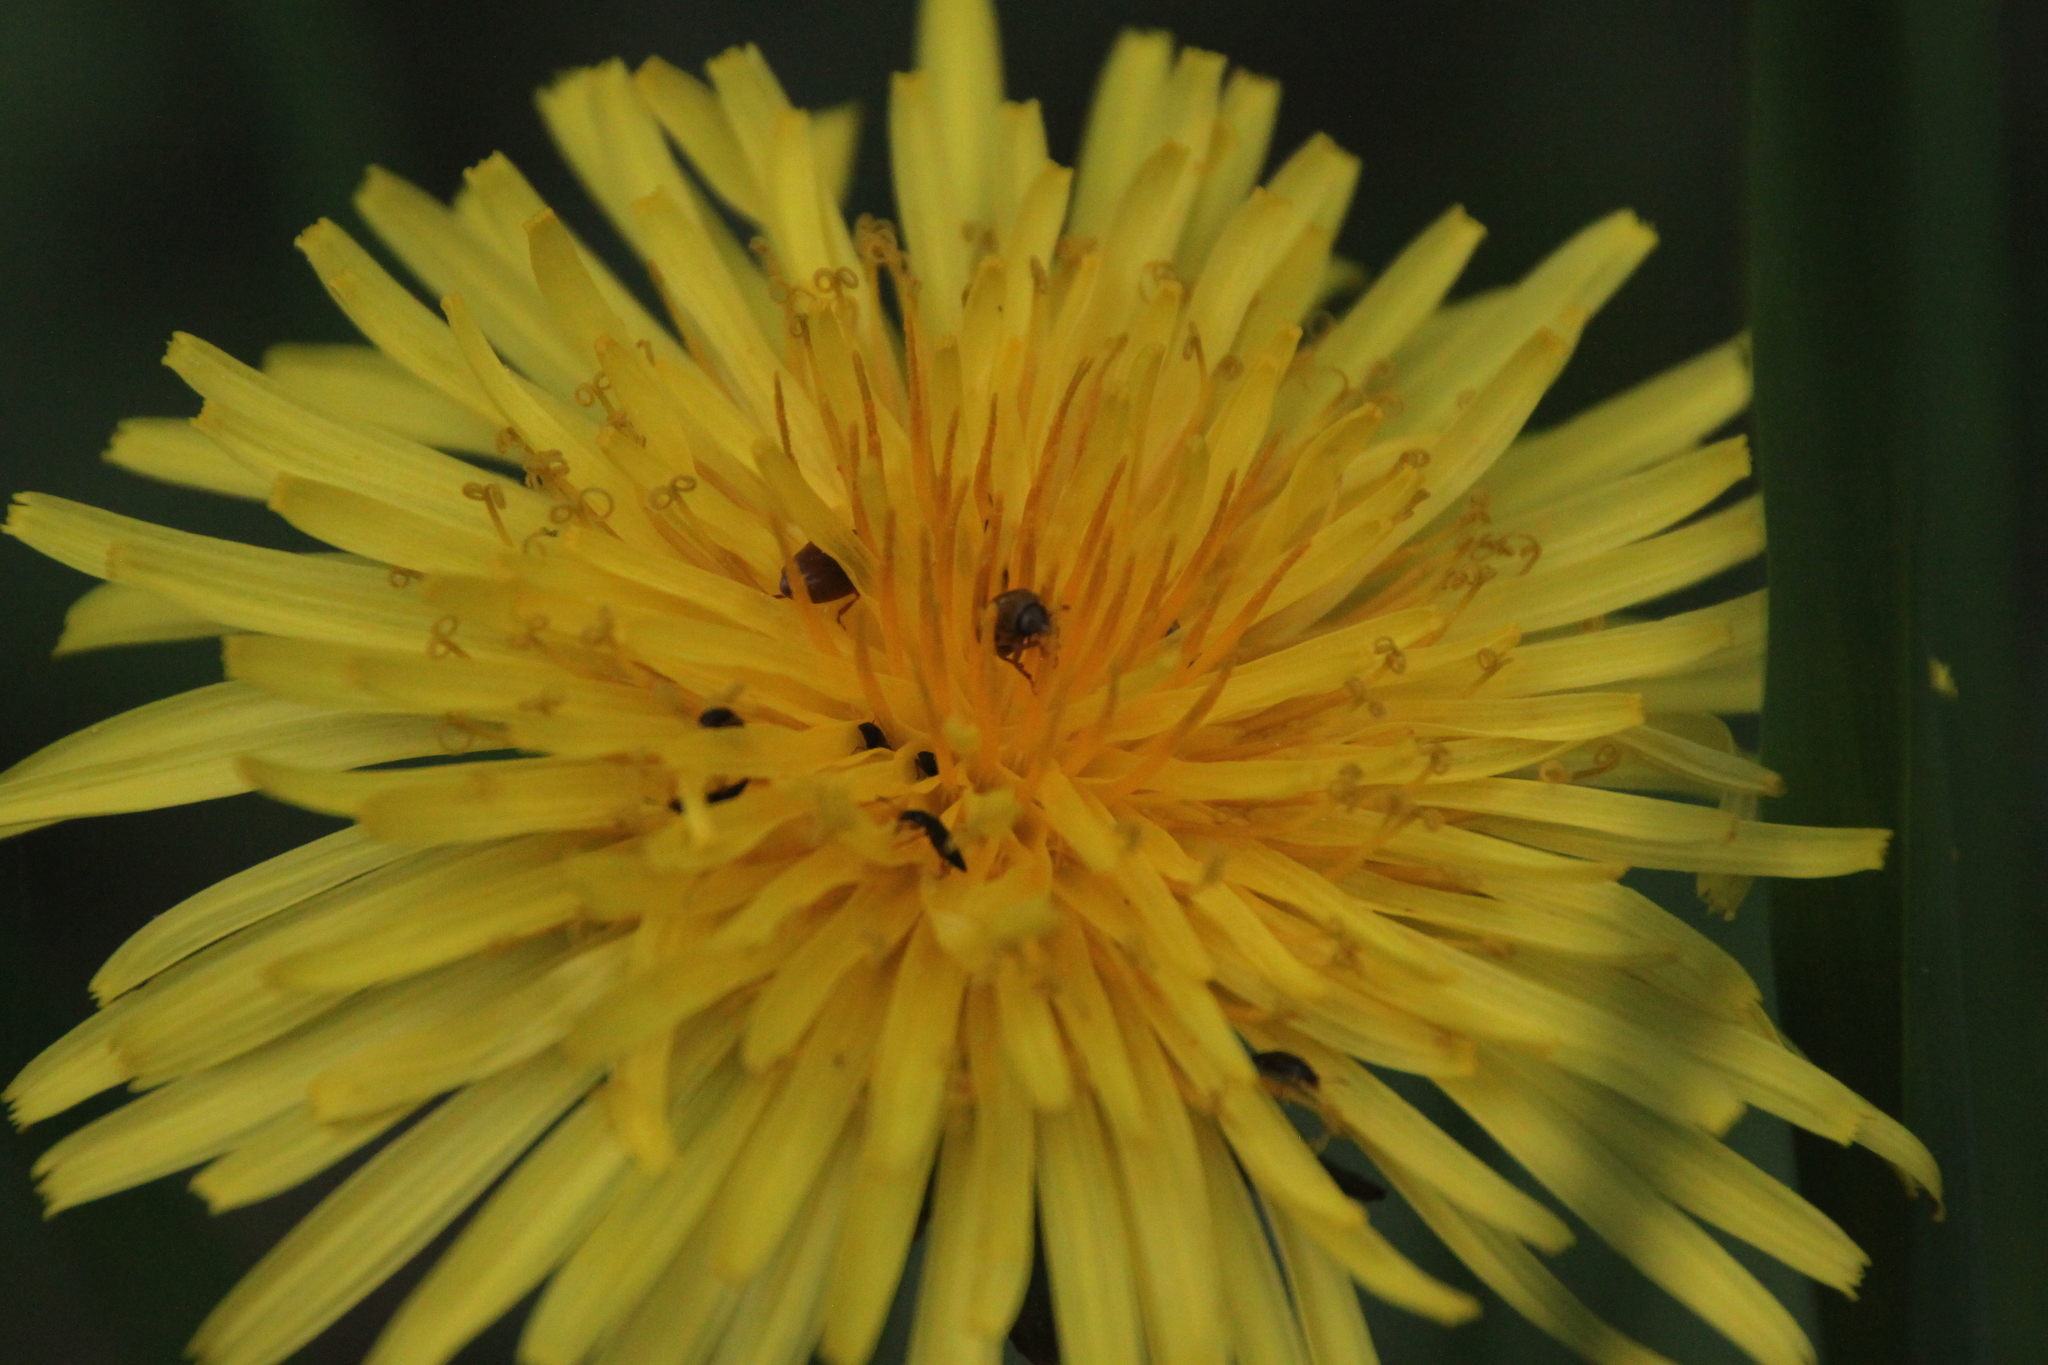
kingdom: Plantae
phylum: Tracheophyta
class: Magnoliopsida
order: Asterales
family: Asteraceae
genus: Taraxacum
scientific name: Taraxacum officinale
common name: Common dandelion
